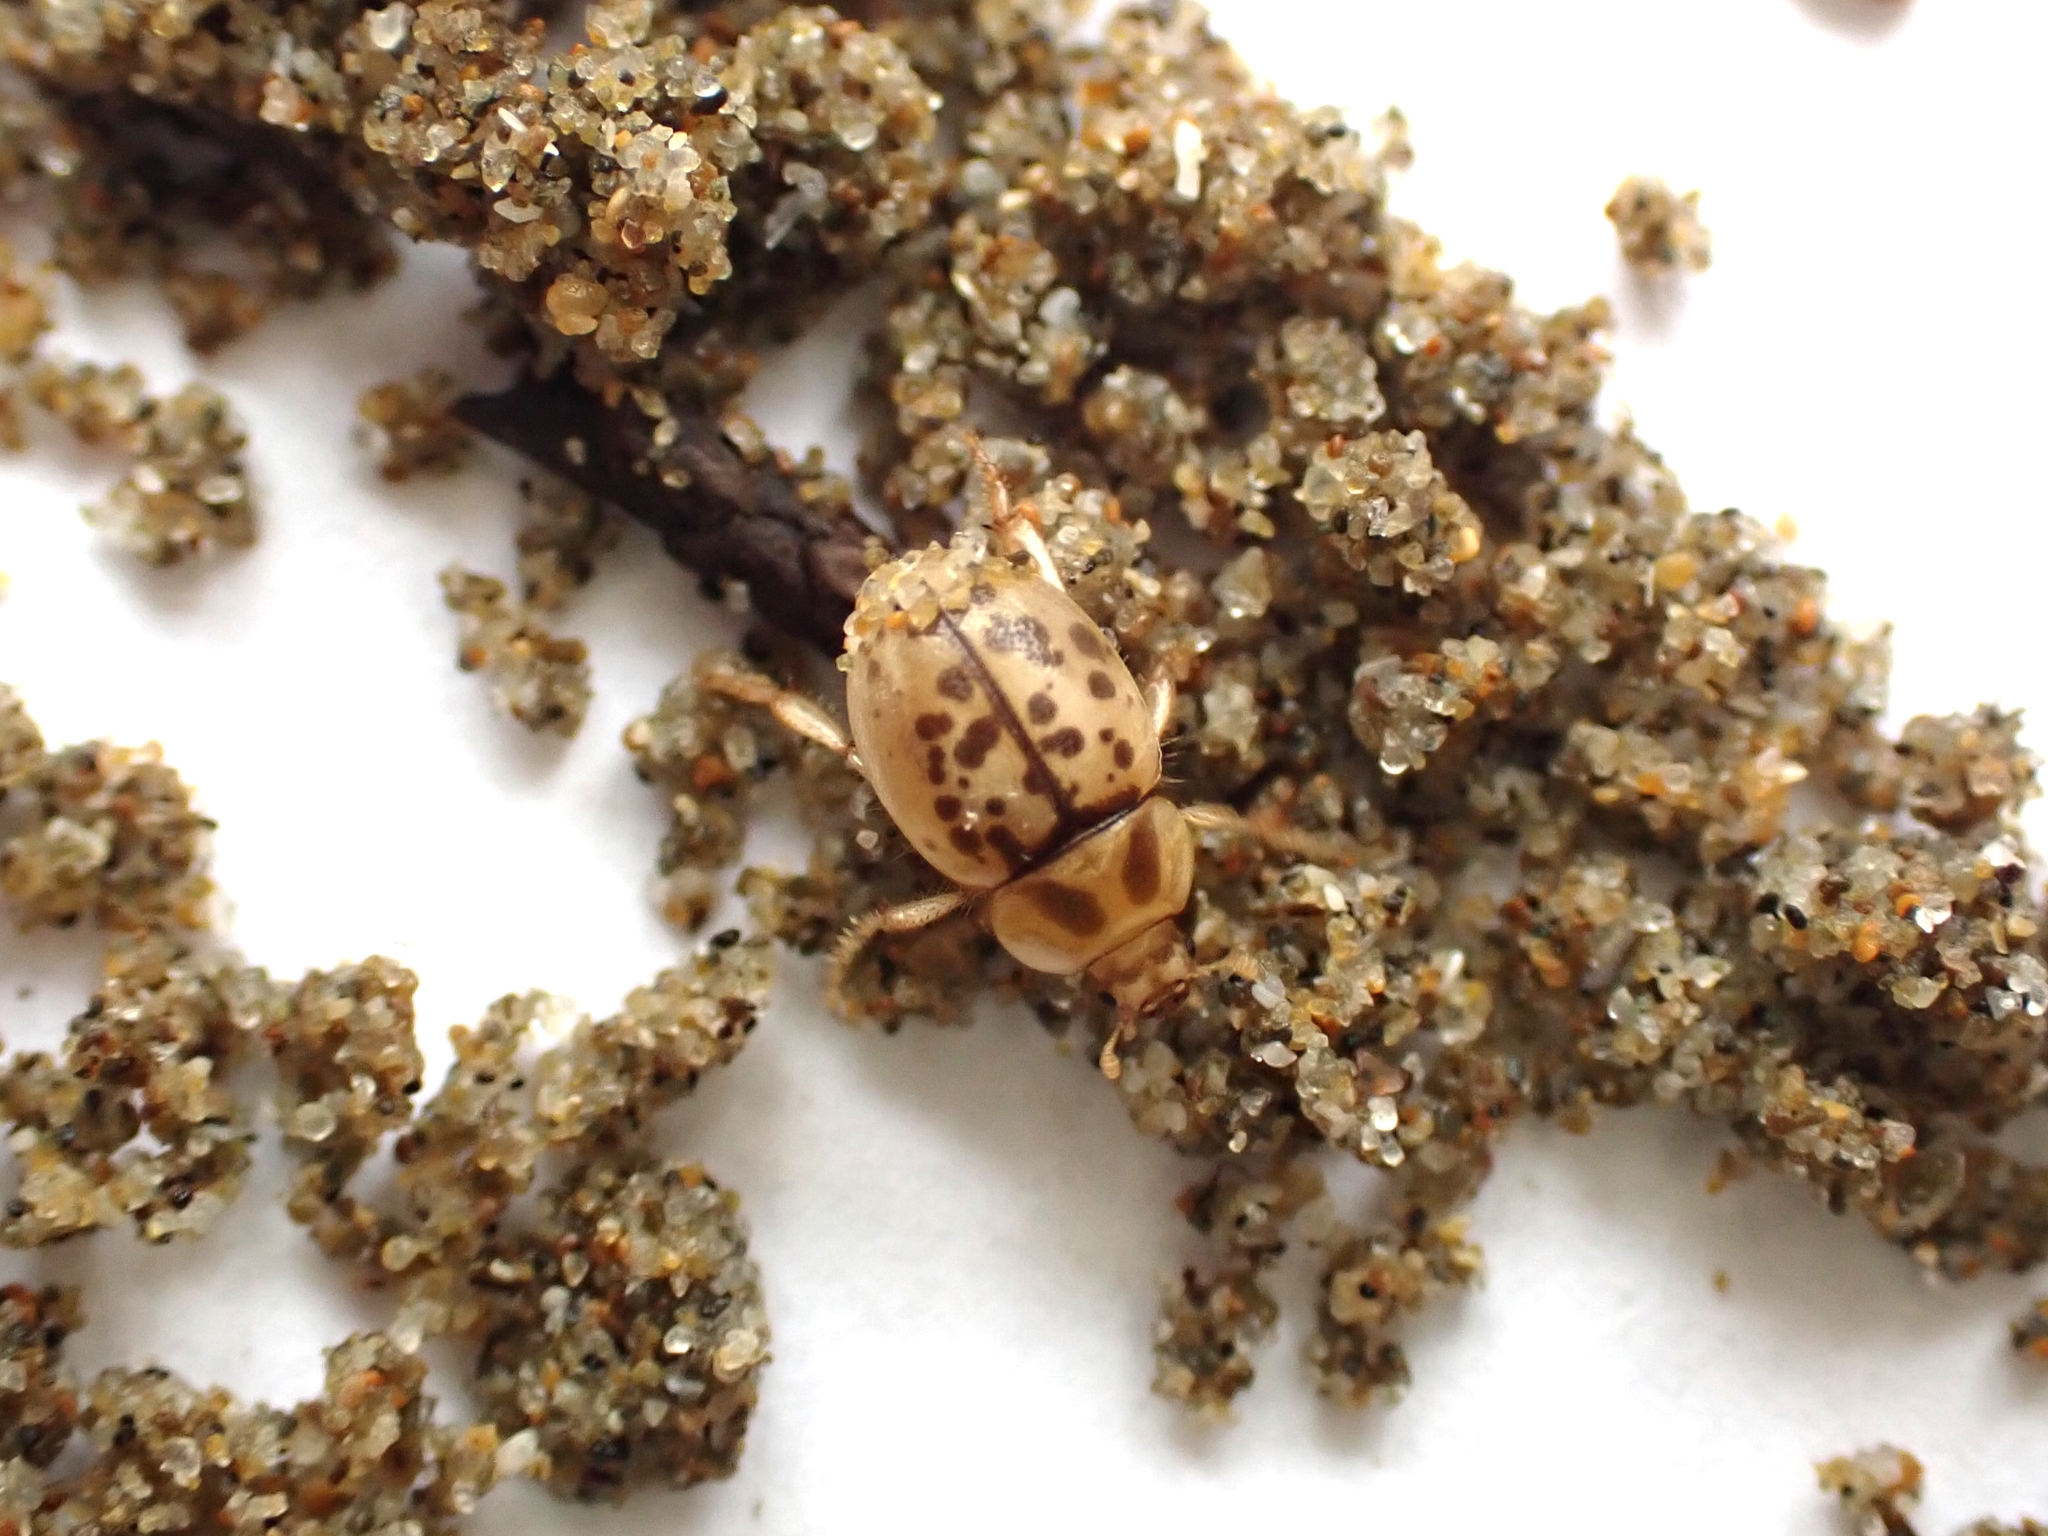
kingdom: Animalia
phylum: Arthropoda
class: Insecta
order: Coleoptera
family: Tenebrionidae
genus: Chaerodes
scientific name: Chaerodes trachyscelides
